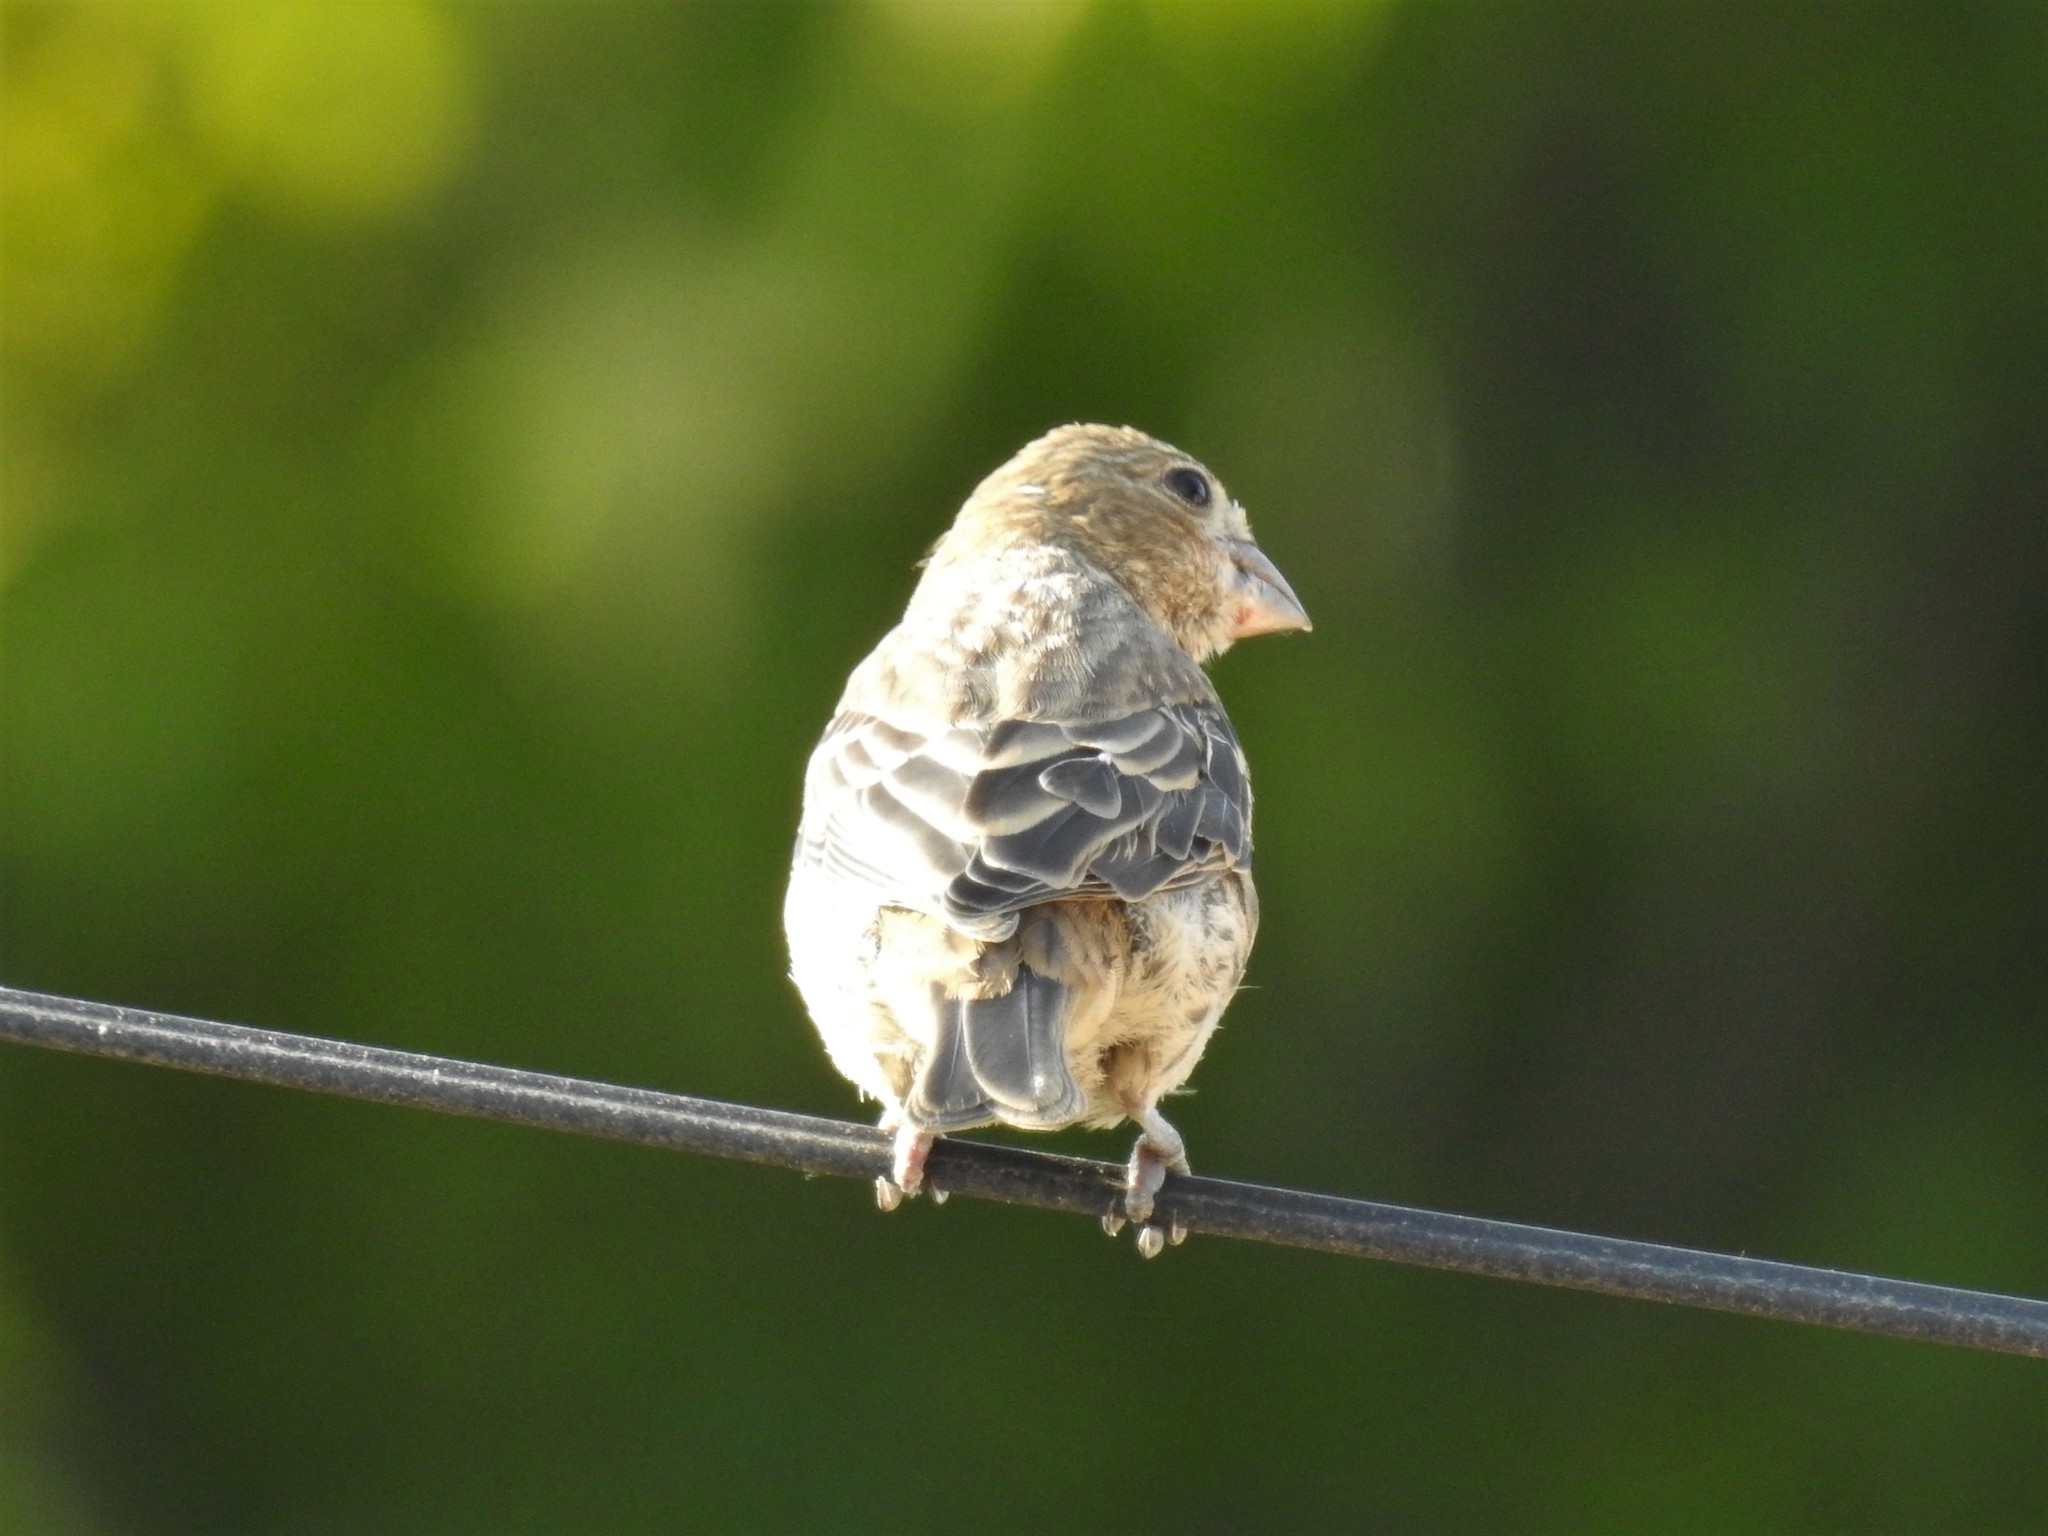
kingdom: Animalia
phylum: Chordata
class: Aves
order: Passeriformes
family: Fringillidae
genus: Haemorhous
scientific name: Haemorhous mexicanus
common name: House finch
